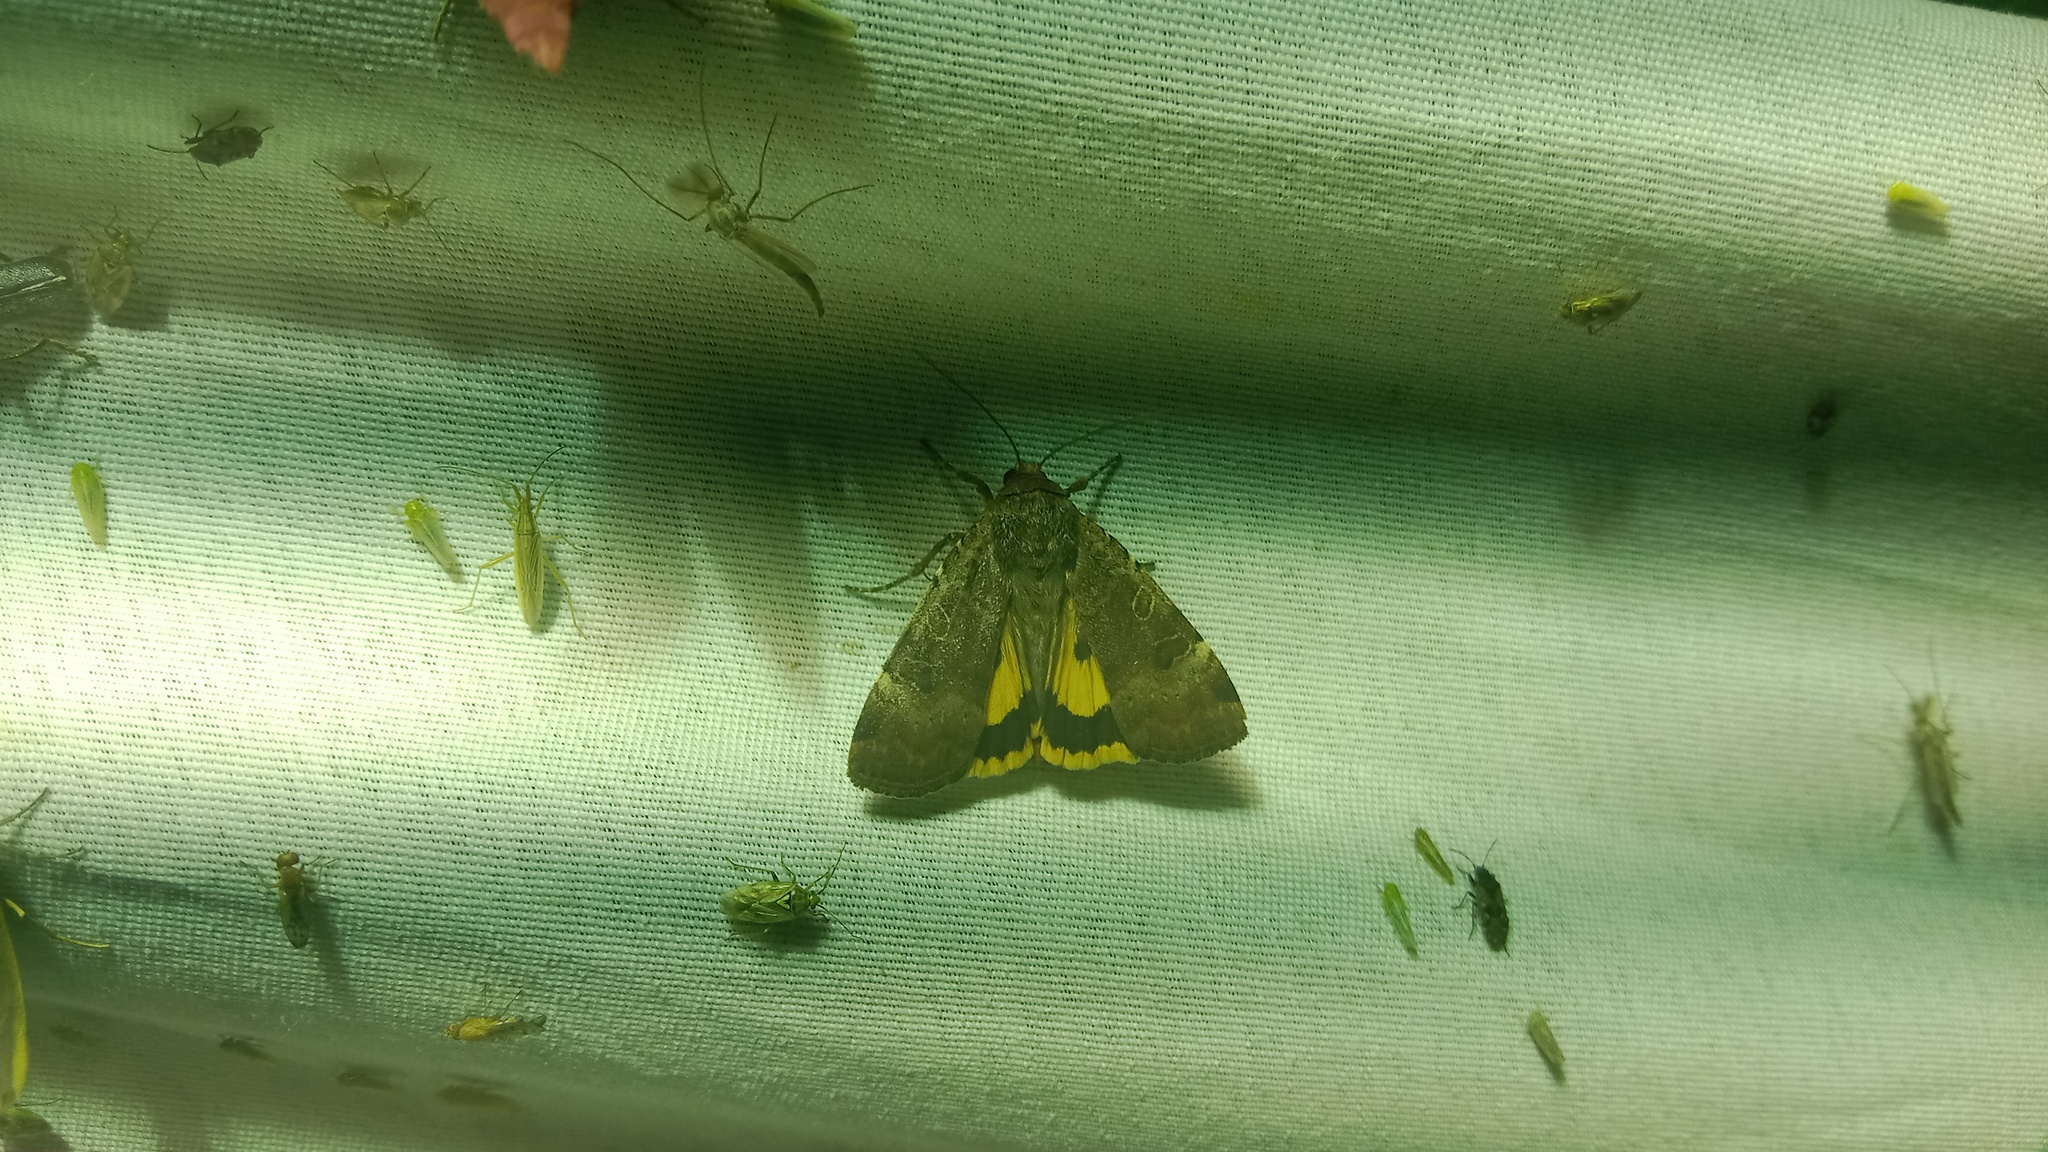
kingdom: Animalia
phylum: Arthropoda
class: Insecta
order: Lepidoptera
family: Noctuidae
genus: Noctua
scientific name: Noctua interposita
